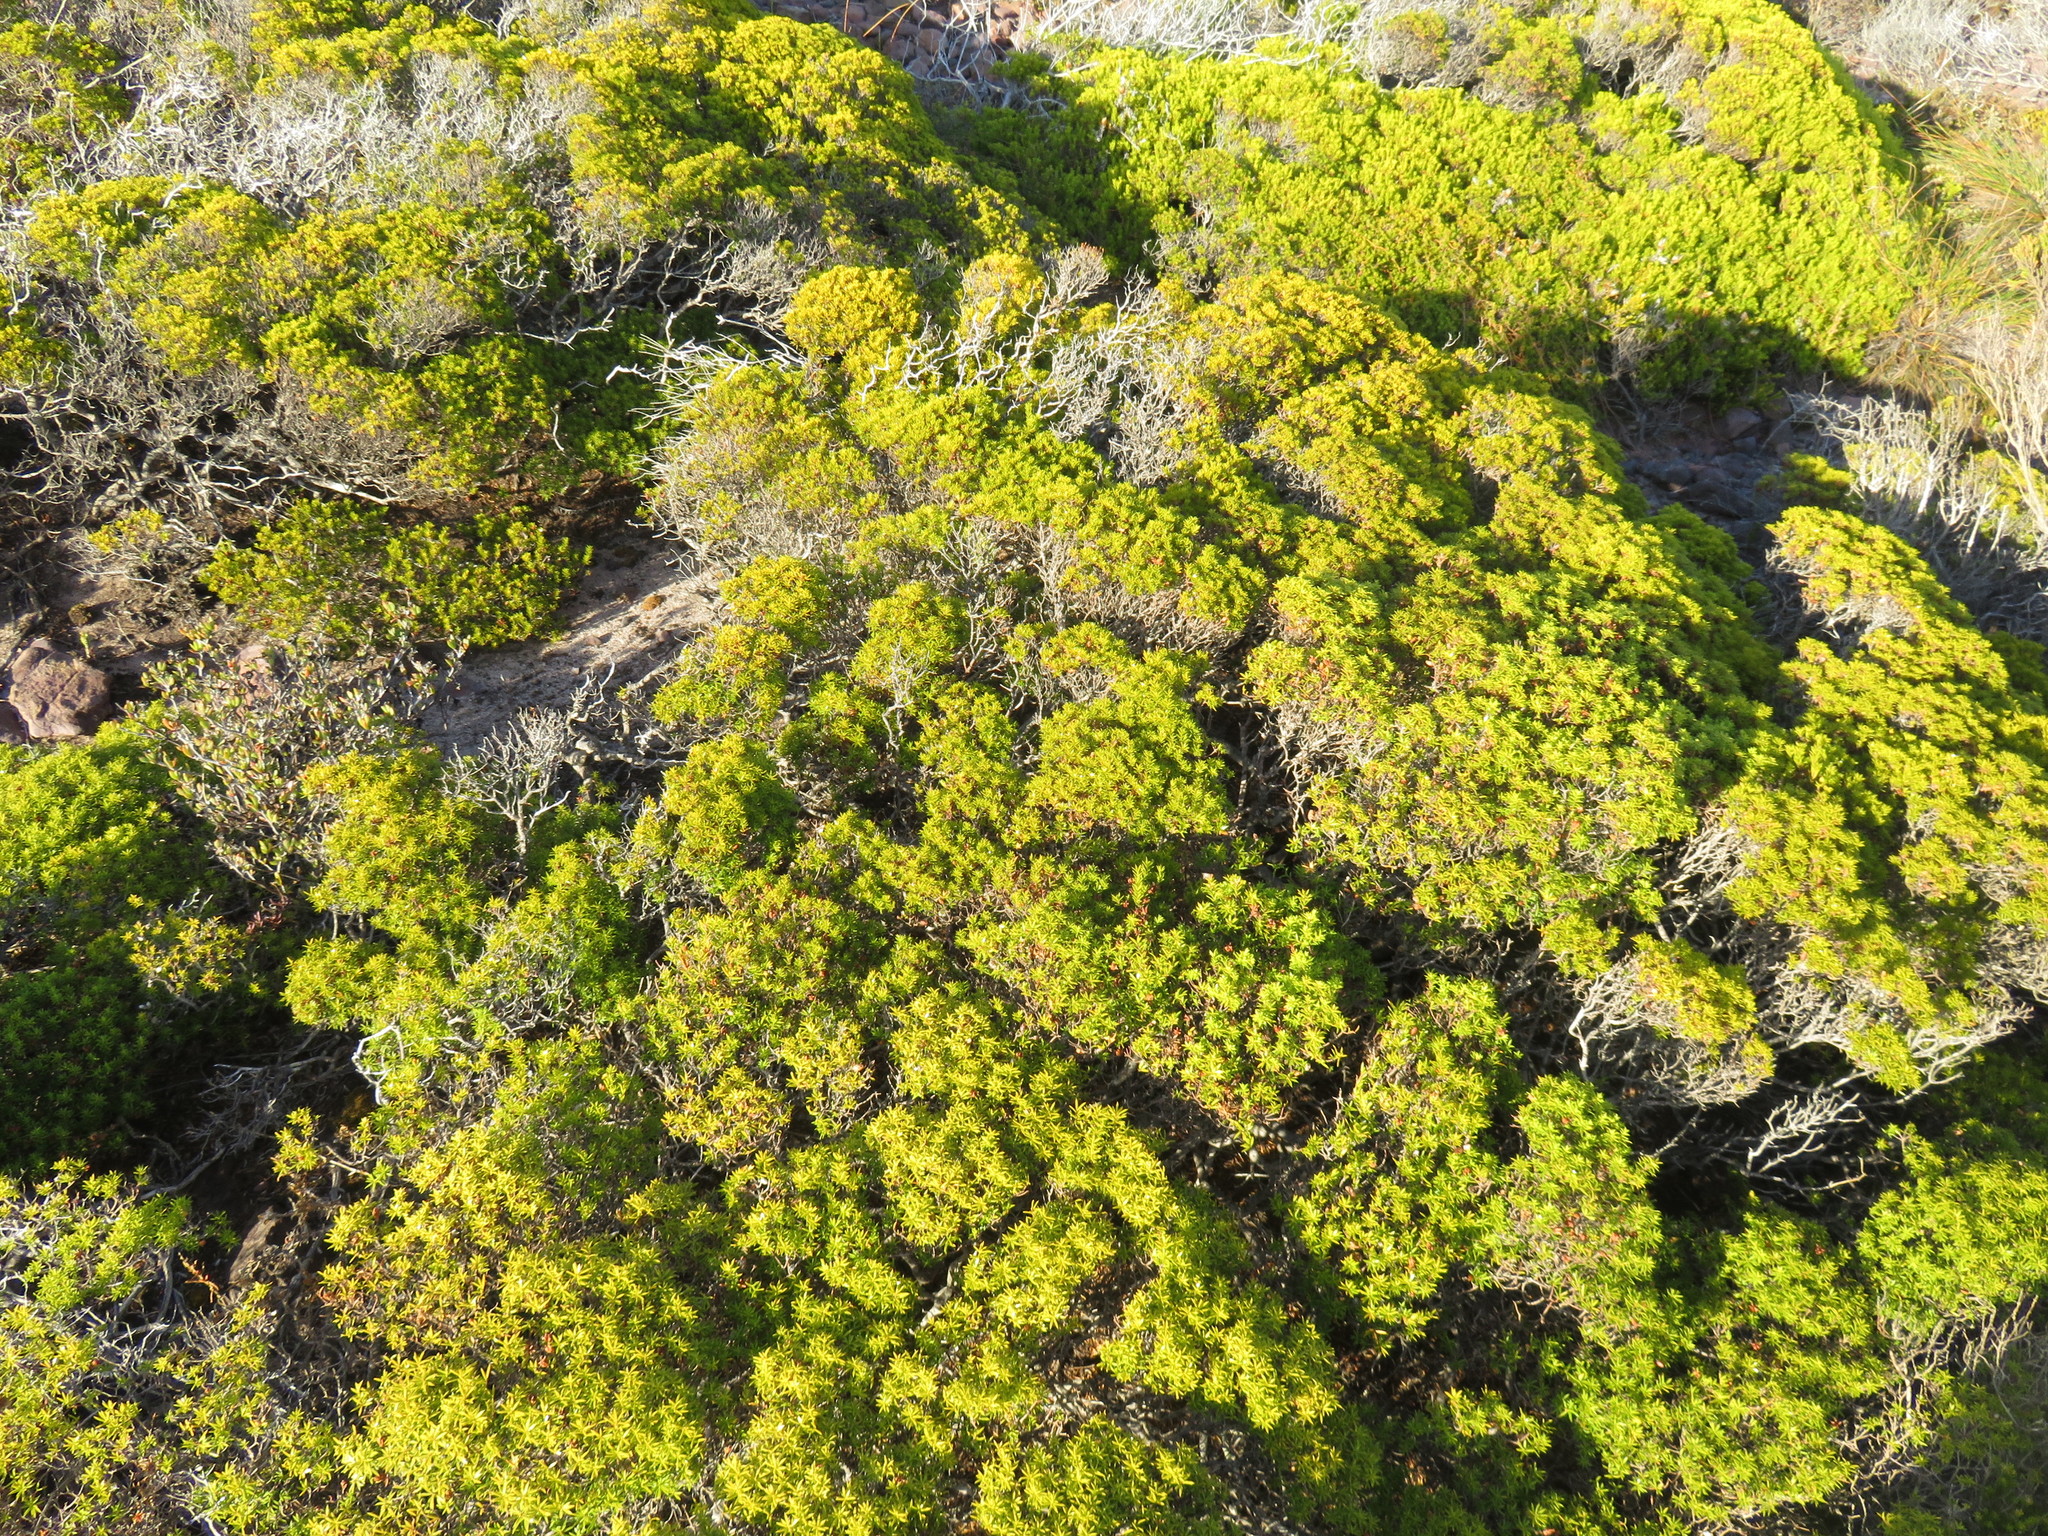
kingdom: Plantae
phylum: Tracheophyta
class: Magnoliopsida
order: Sapindales
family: Rutaceae
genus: Coleonema
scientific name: Coleonema album
